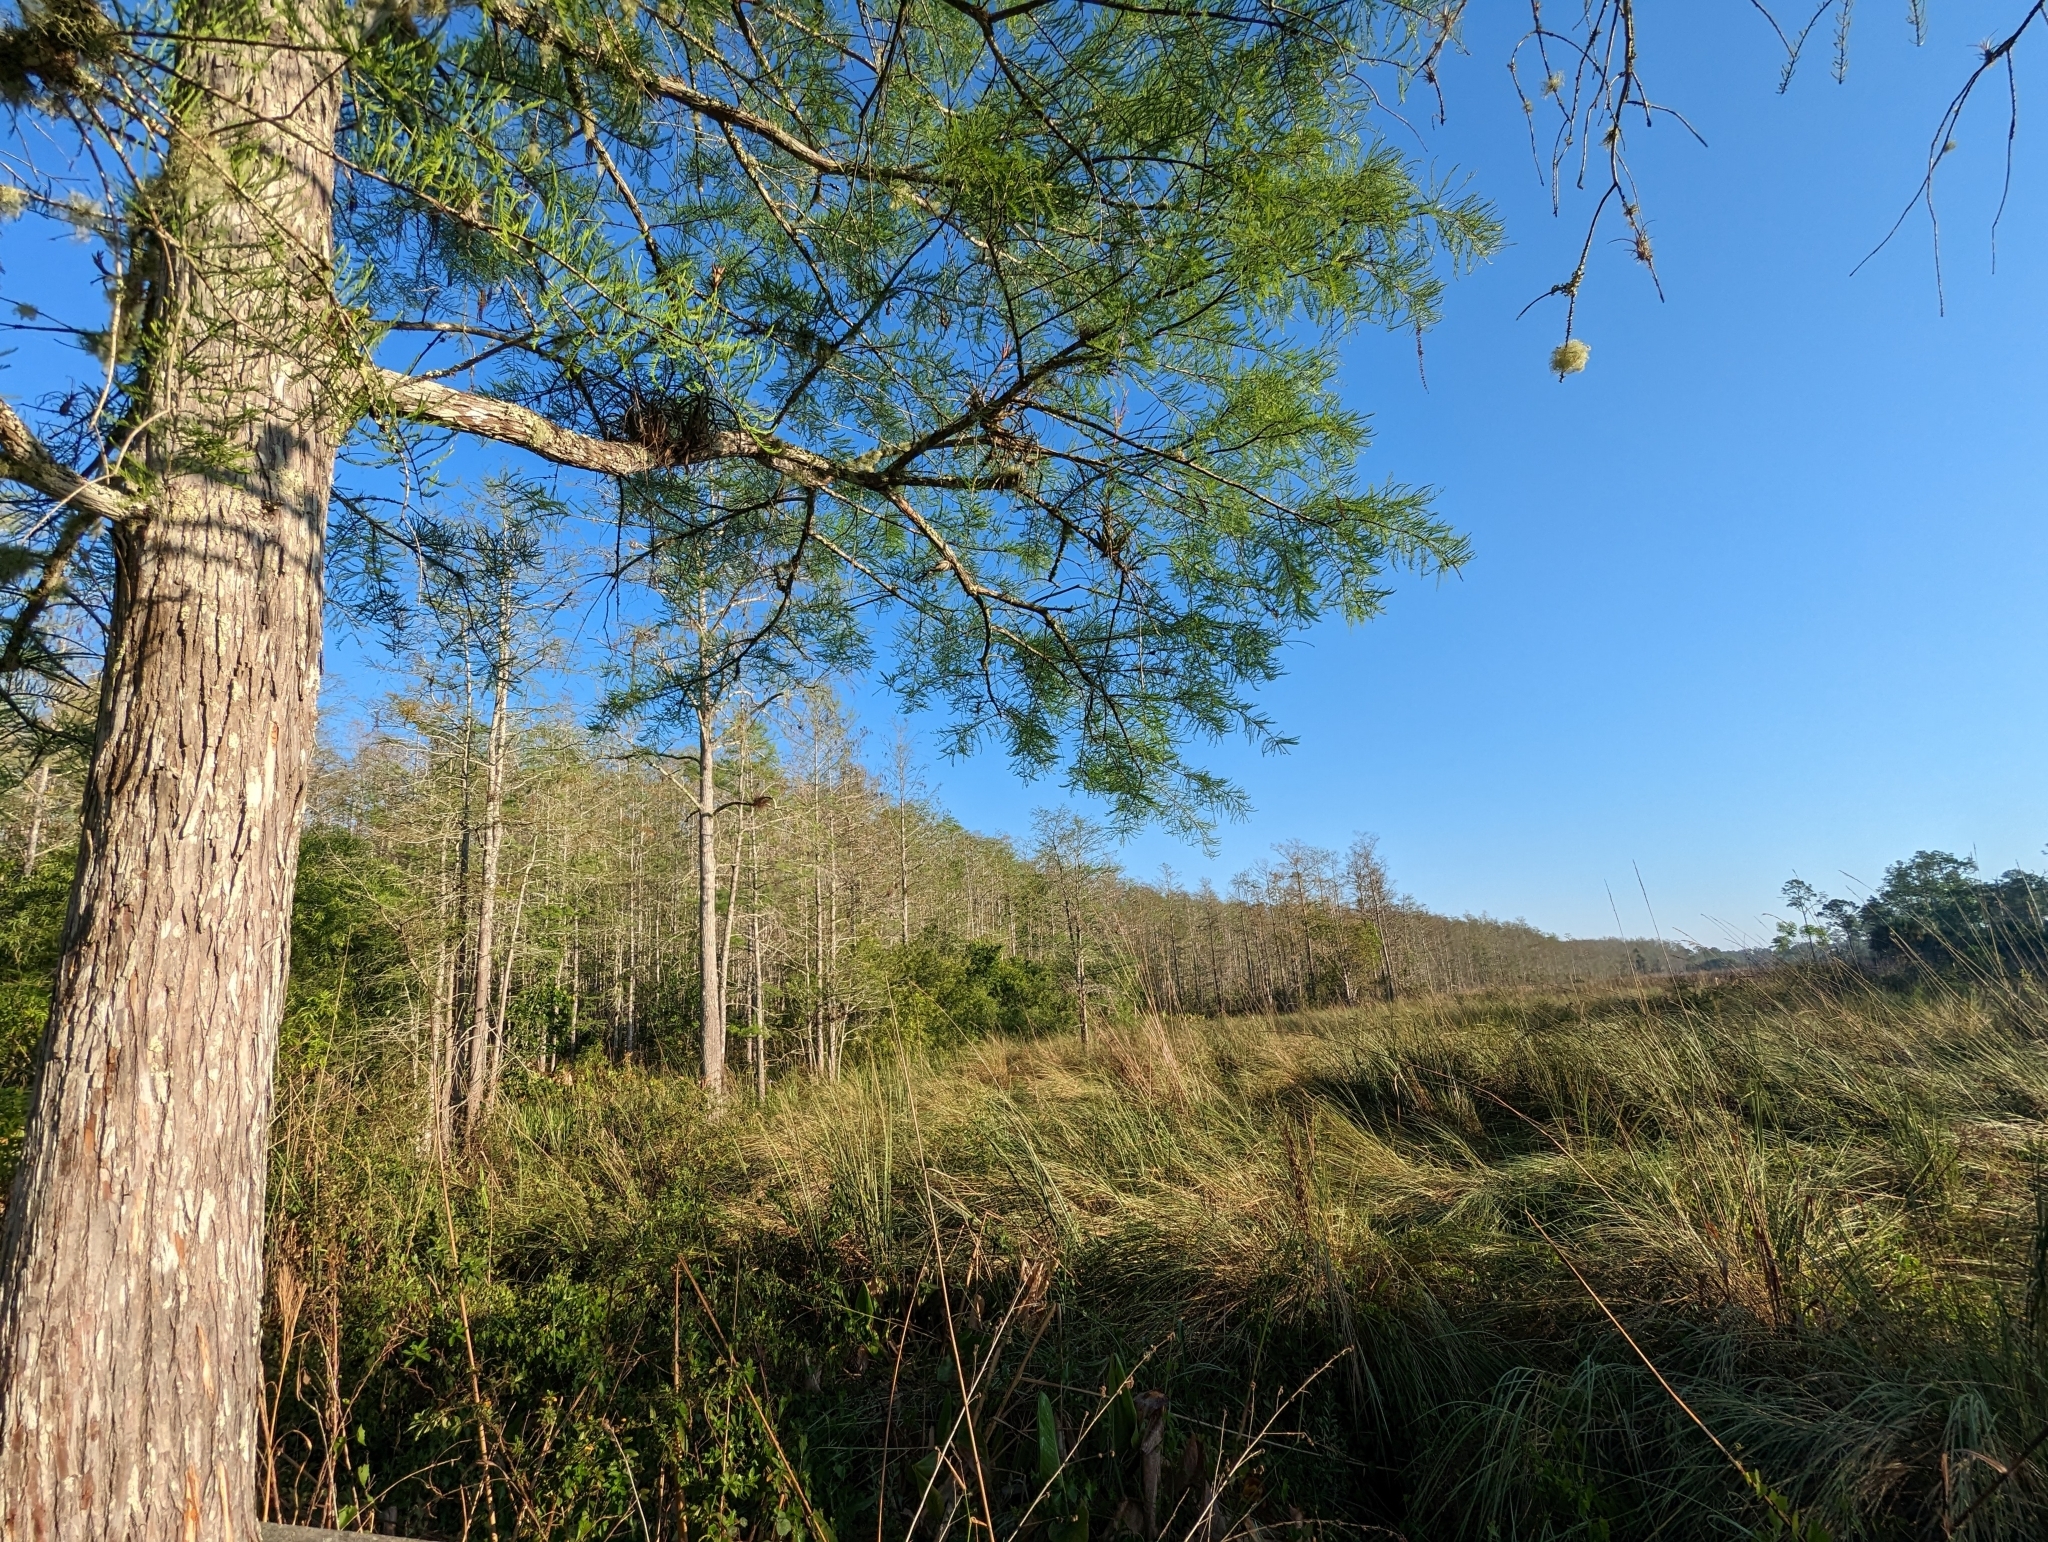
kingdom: Plantae
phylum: Tracheophyta
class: Pinopsida
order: Pinales
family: Cupressaceae
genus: Taxodium
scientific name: Taxodium distichum
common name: Bald cypress
